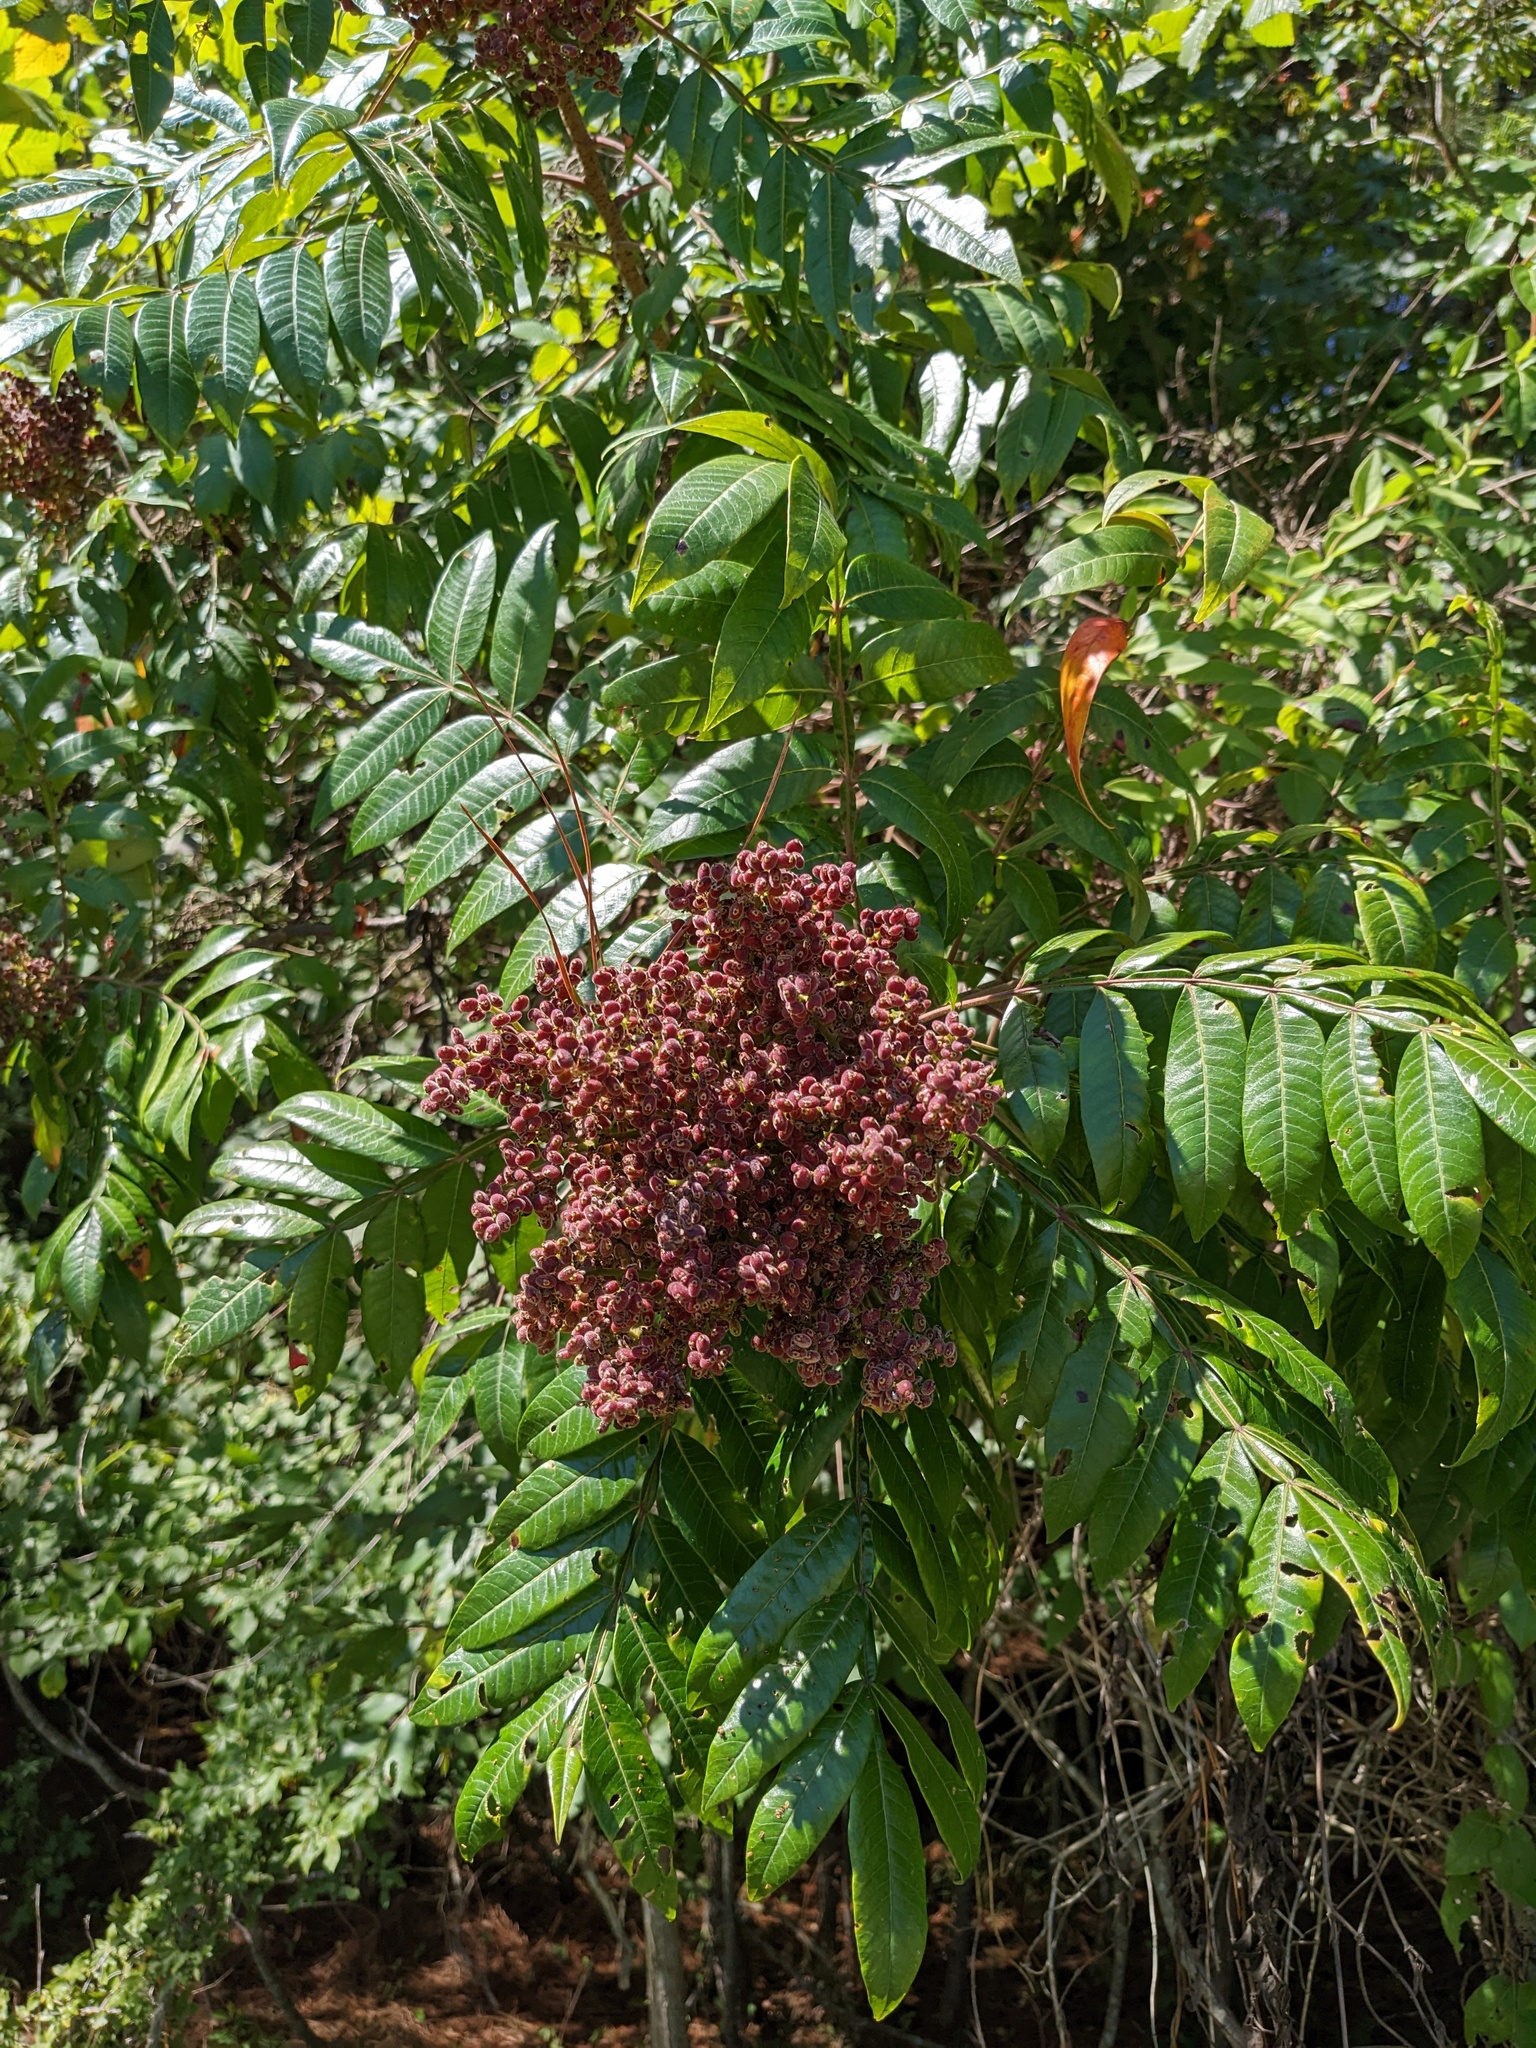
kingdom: Plantae
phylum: Tracheophyta
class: Magnoliopsida
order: Sapindales
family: Anacardiaceae
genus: Rhus
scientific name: Rhus copallina
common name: Shining sumac
